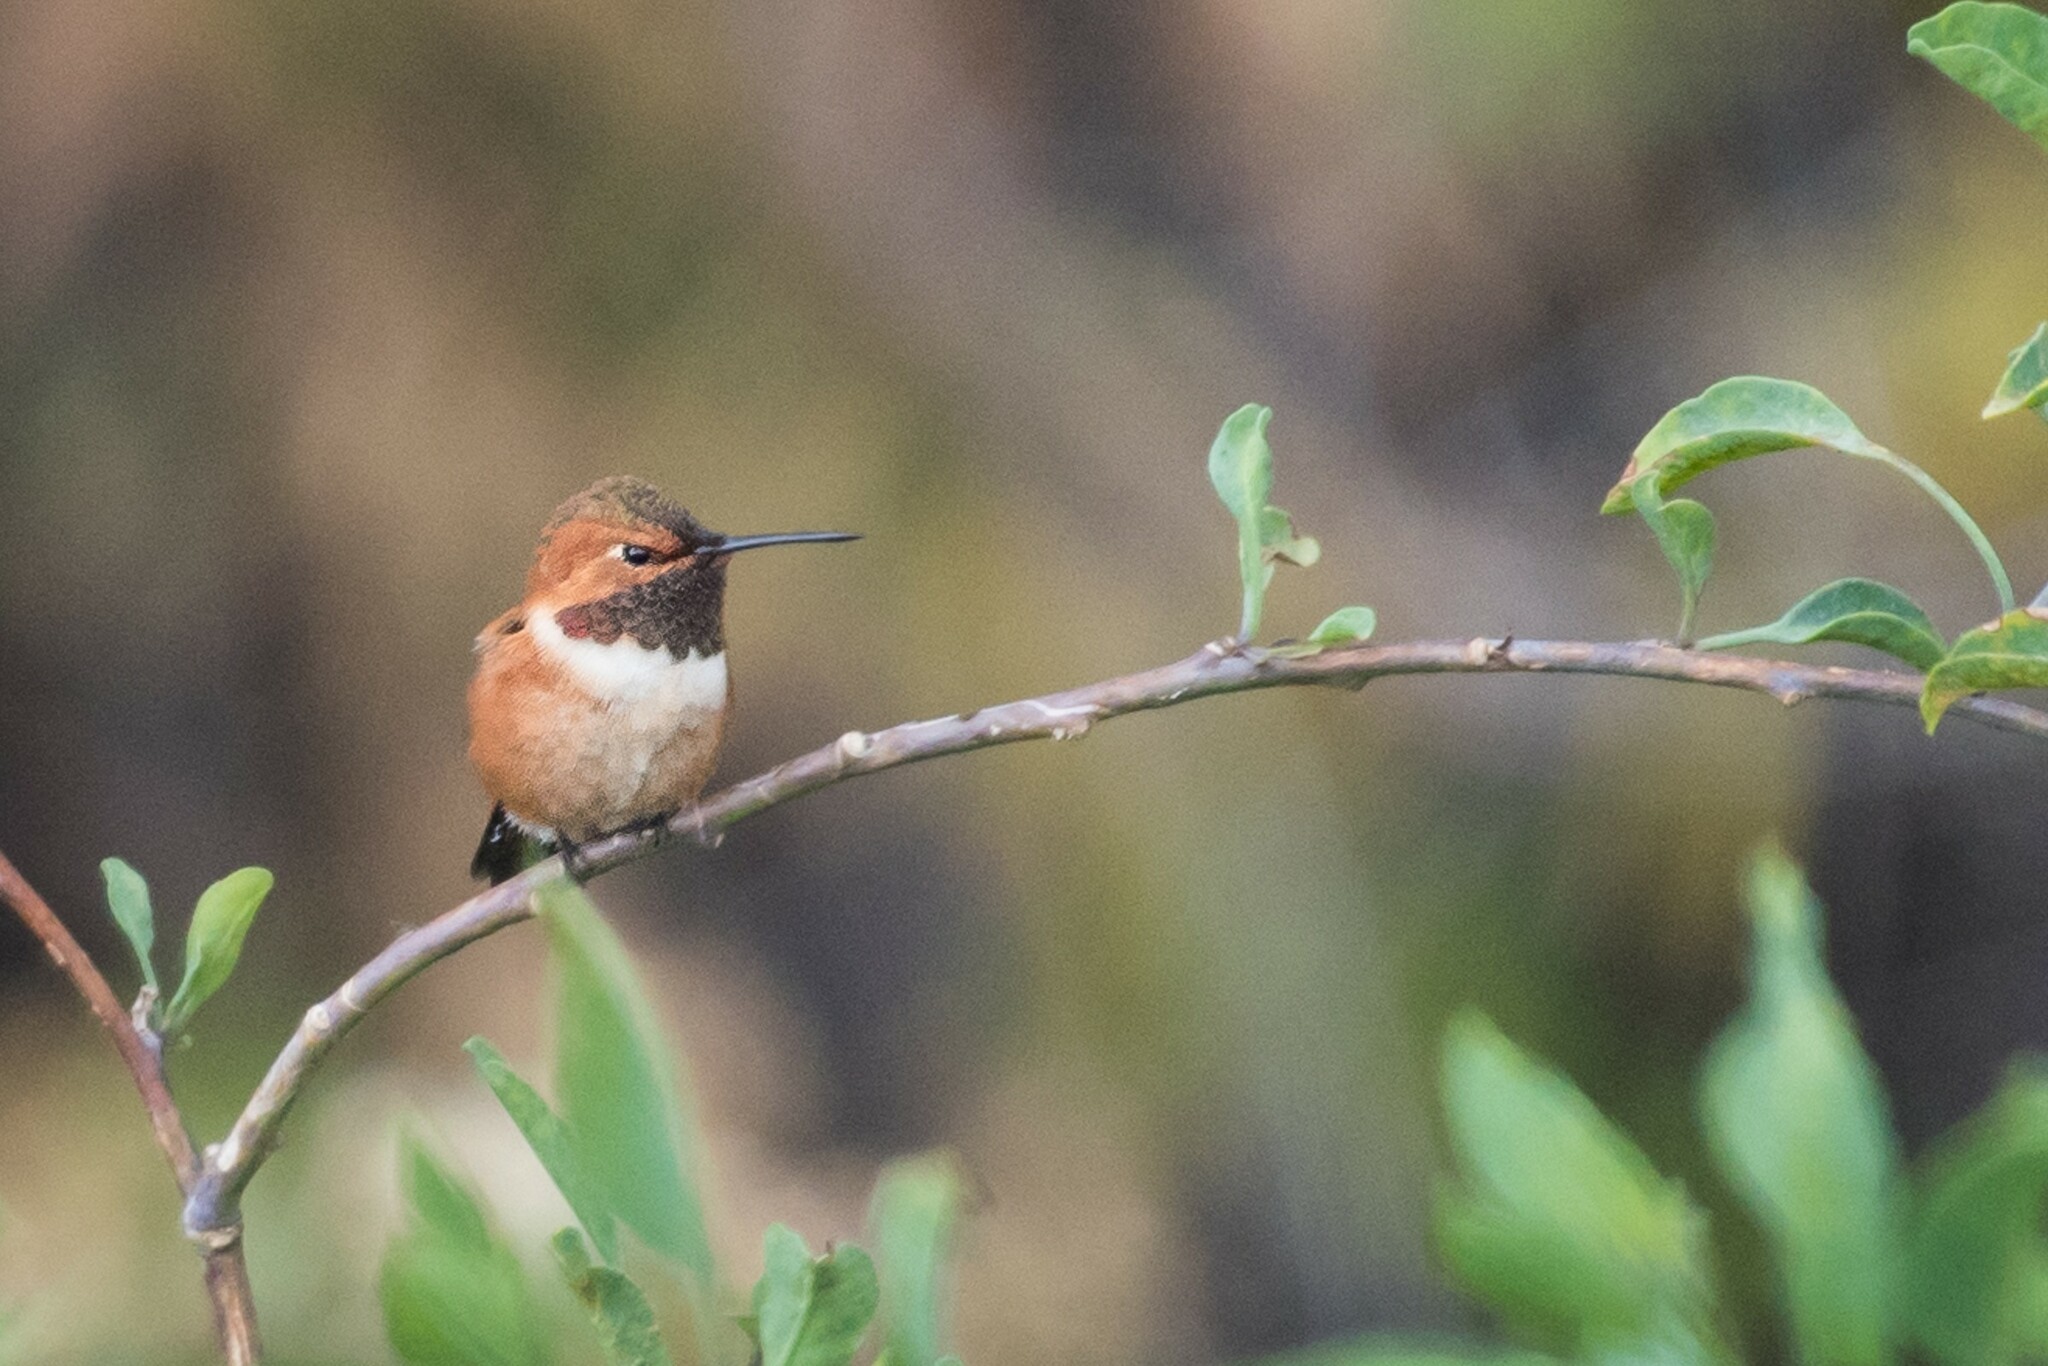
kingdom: Animalia
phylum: Chordata
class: Aves
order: Apodiformes
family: Trochilidae
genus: Selasphorus
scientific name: Selasphorus rufus
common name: Rufous hummingbird
